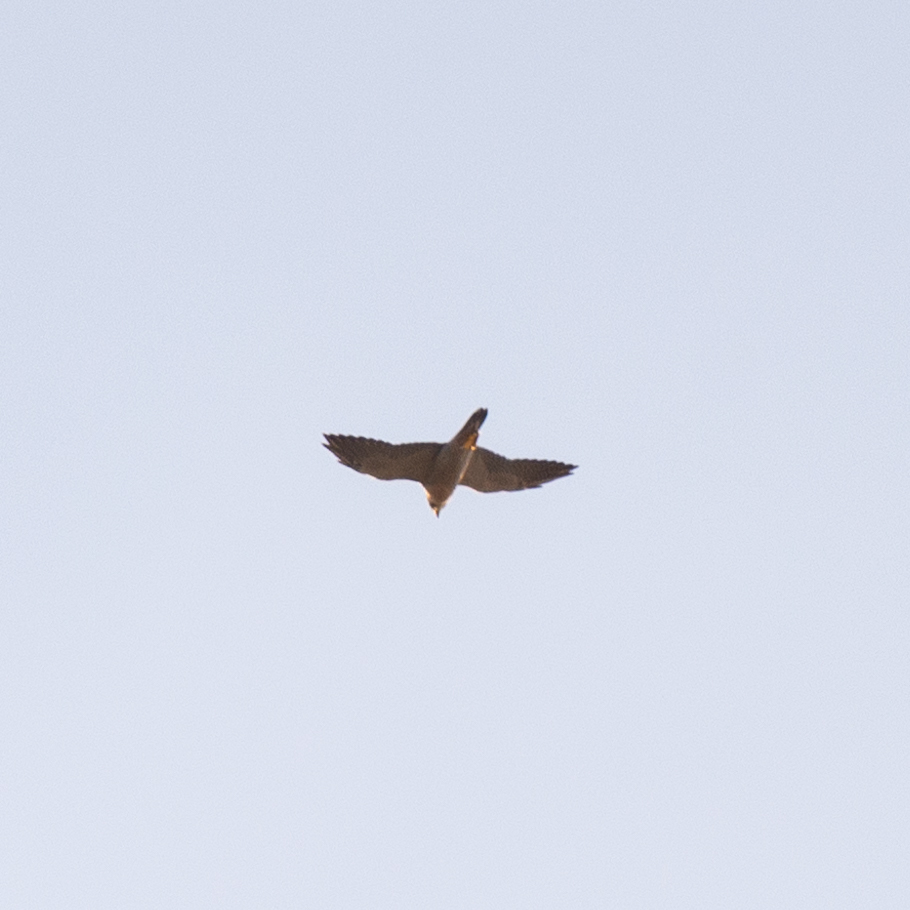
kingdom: Animalia
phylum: Chordata
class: Aves
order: Falconiformes
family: Falconidae
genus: Falco
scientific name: Falco peregrinus
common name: Peregrine falcon
